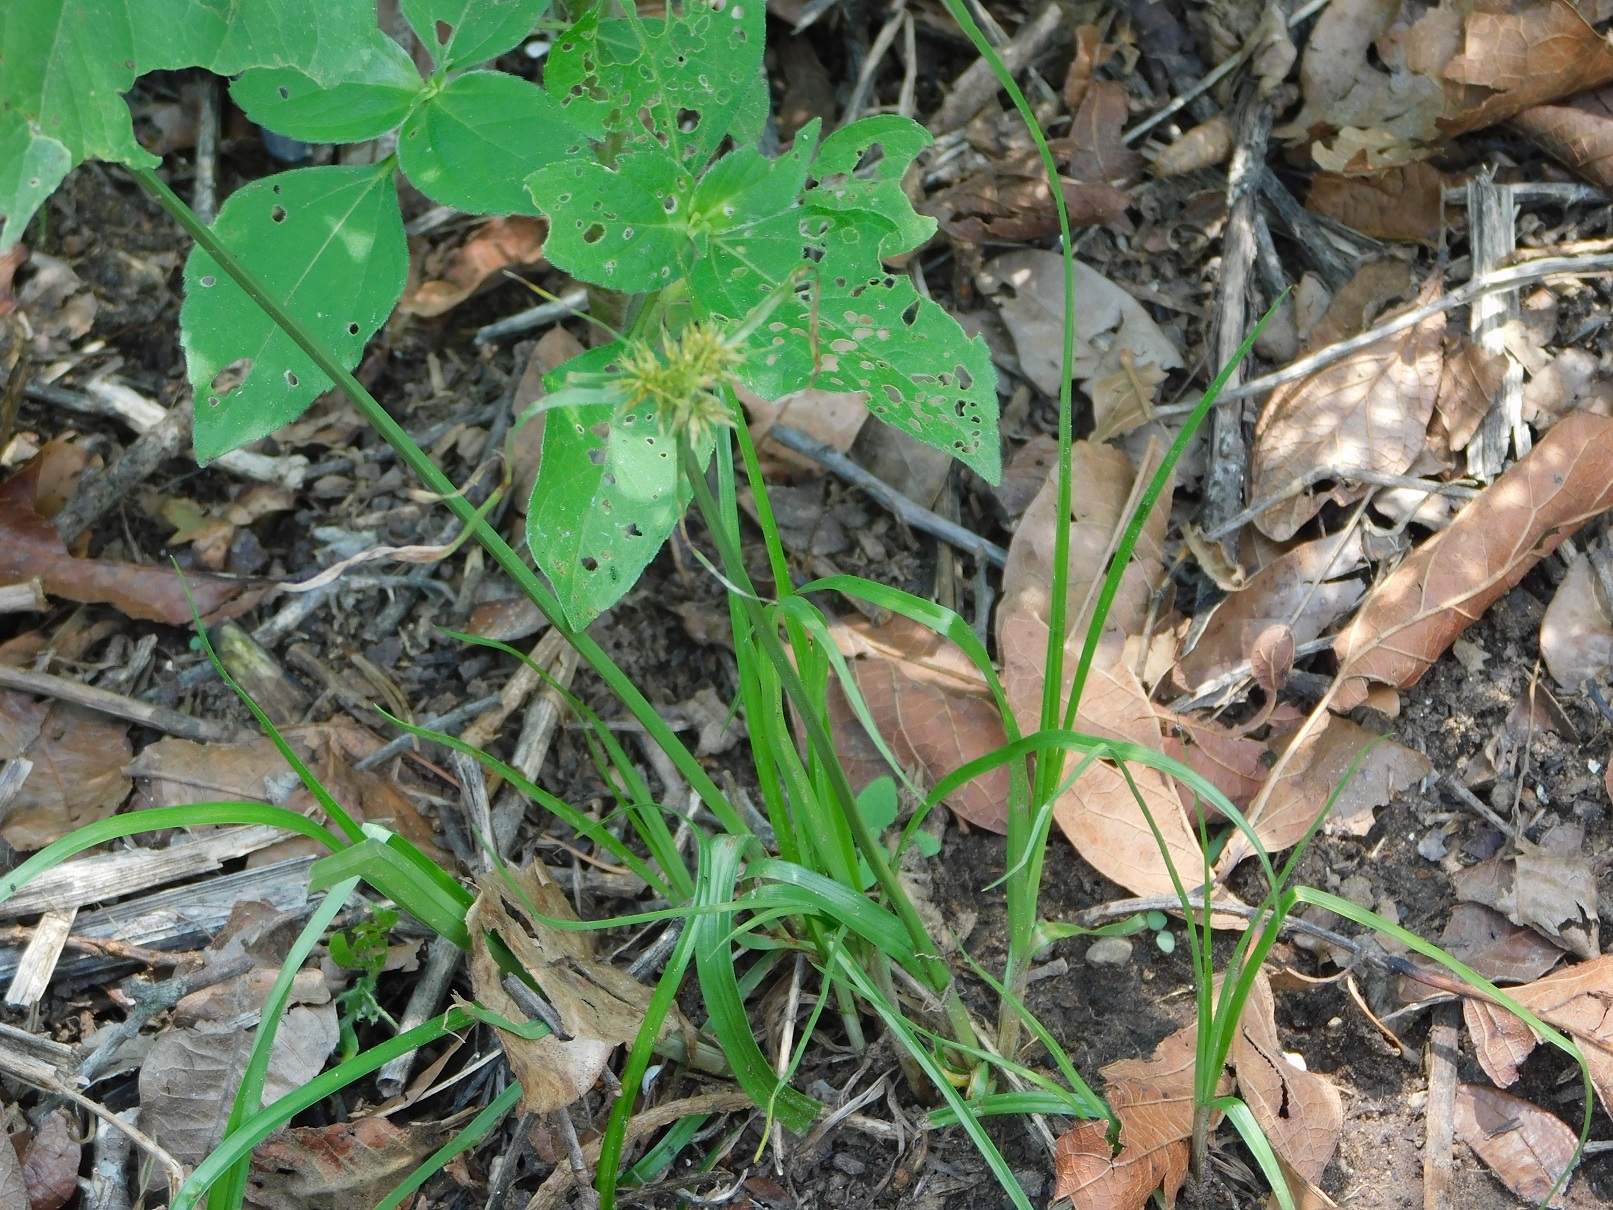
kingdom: Plantae
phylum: Tracheophyta
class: Liliopsida
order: Poales
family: Cyperaceae
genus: Cyperus
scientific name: Cyperus manimae
